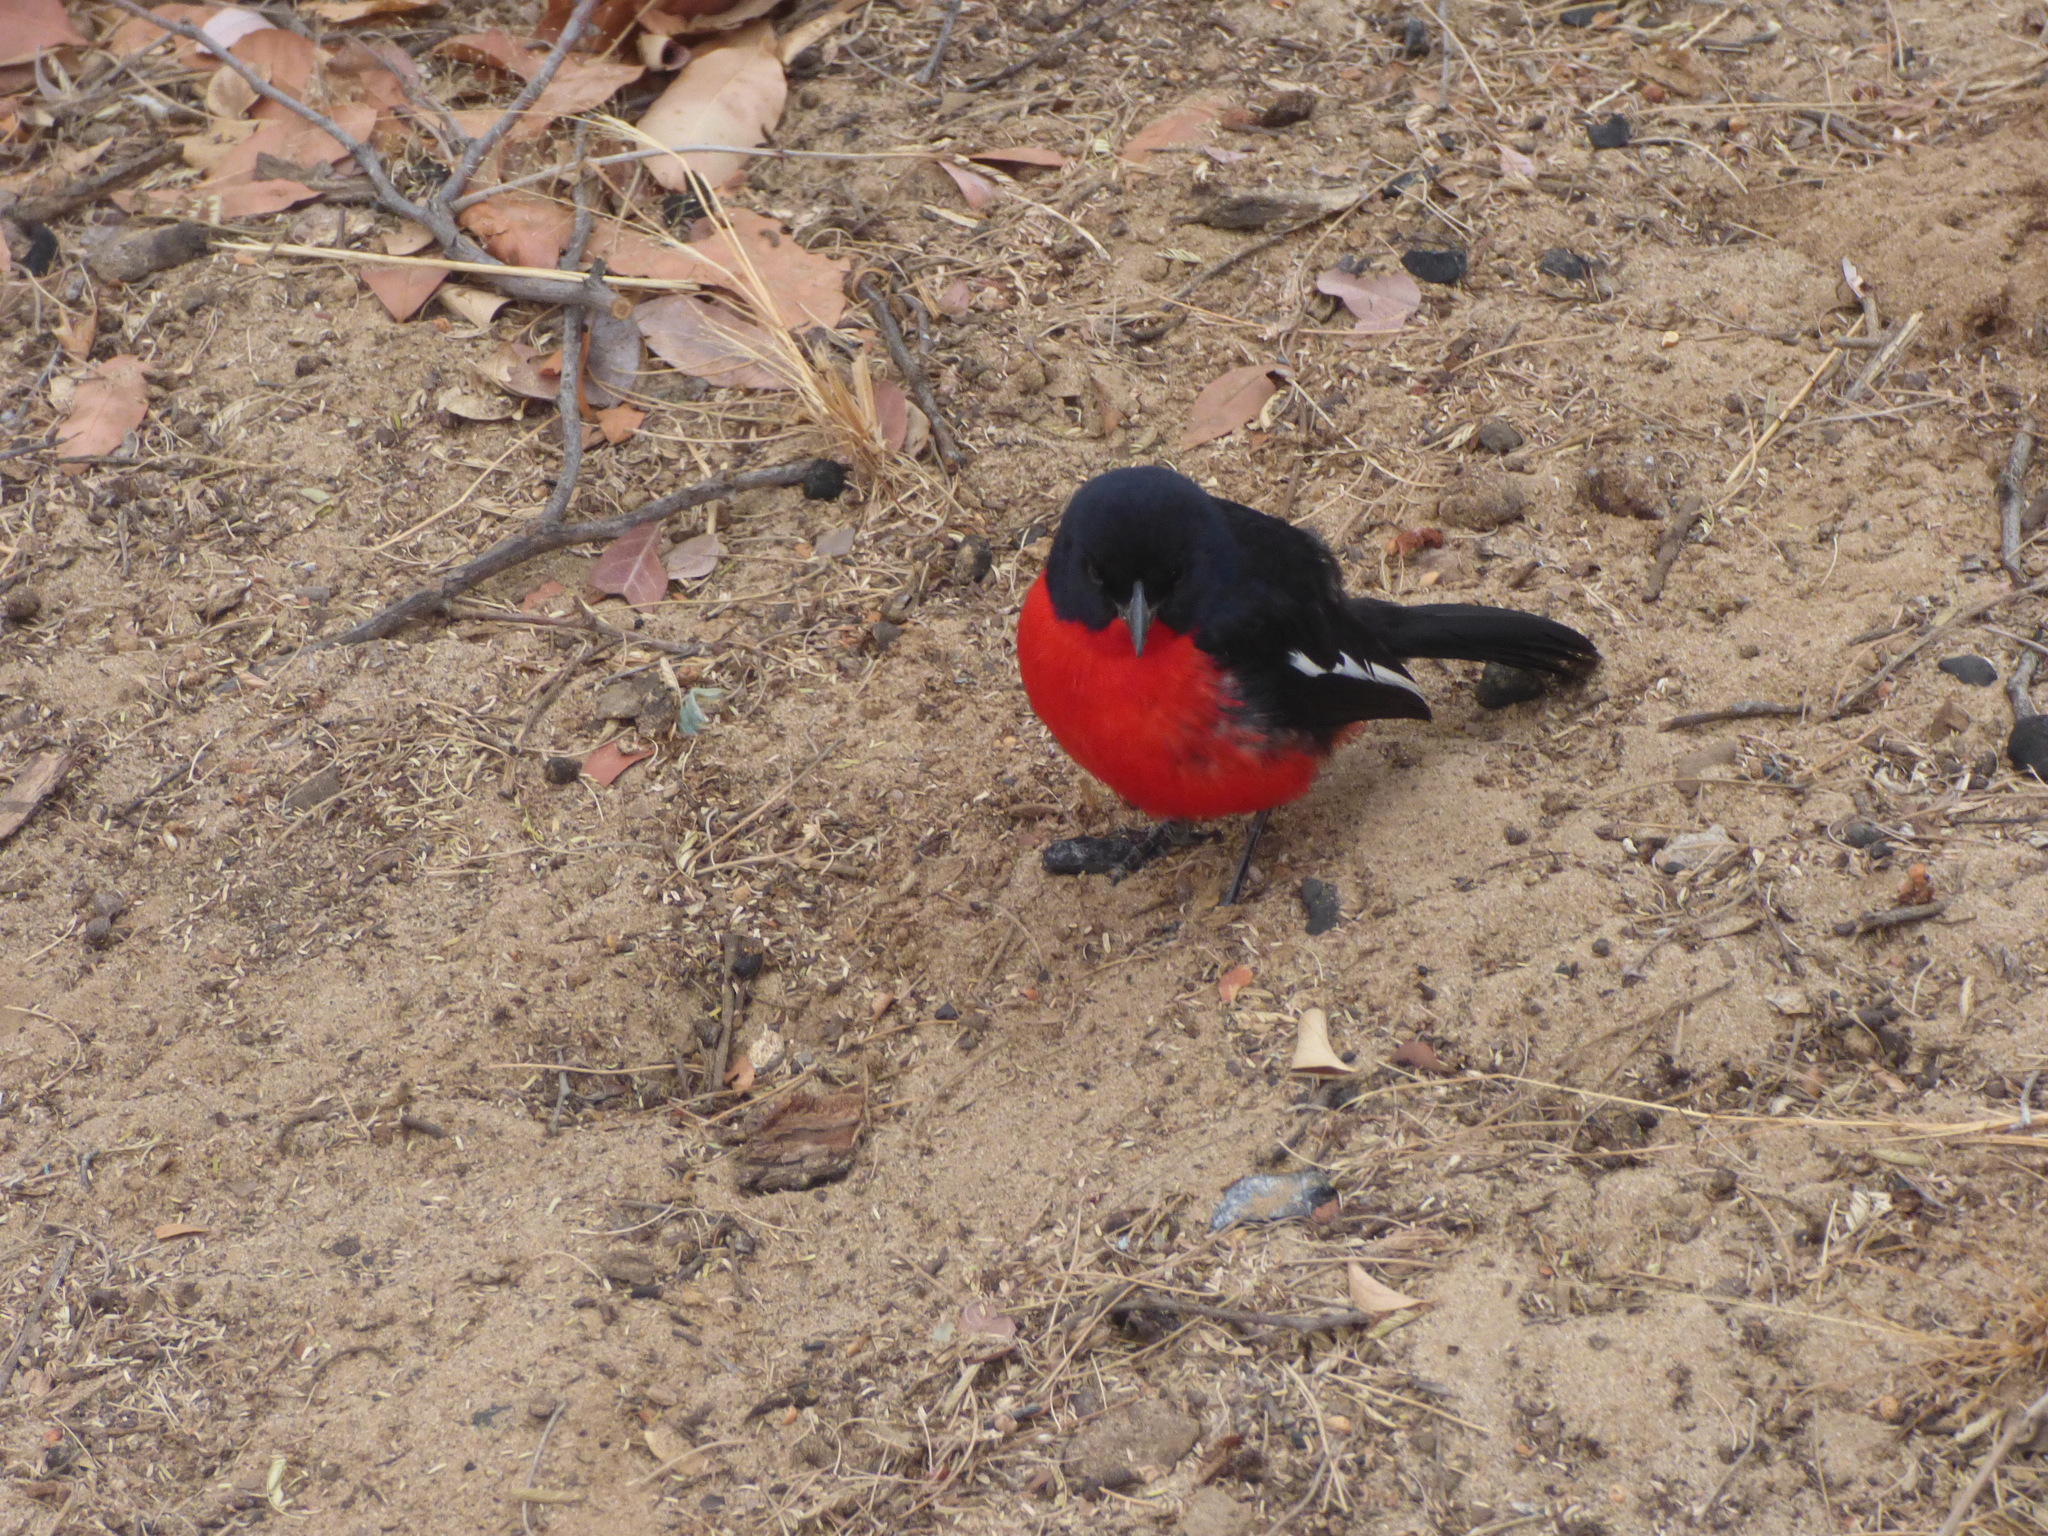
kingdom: Animalia
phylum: Chordata
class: Aves
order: Passeriformes
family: Malaconotidae
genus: Laniarius
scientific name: Laniarius atrococcineus
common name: Crimson-breasted shrike
